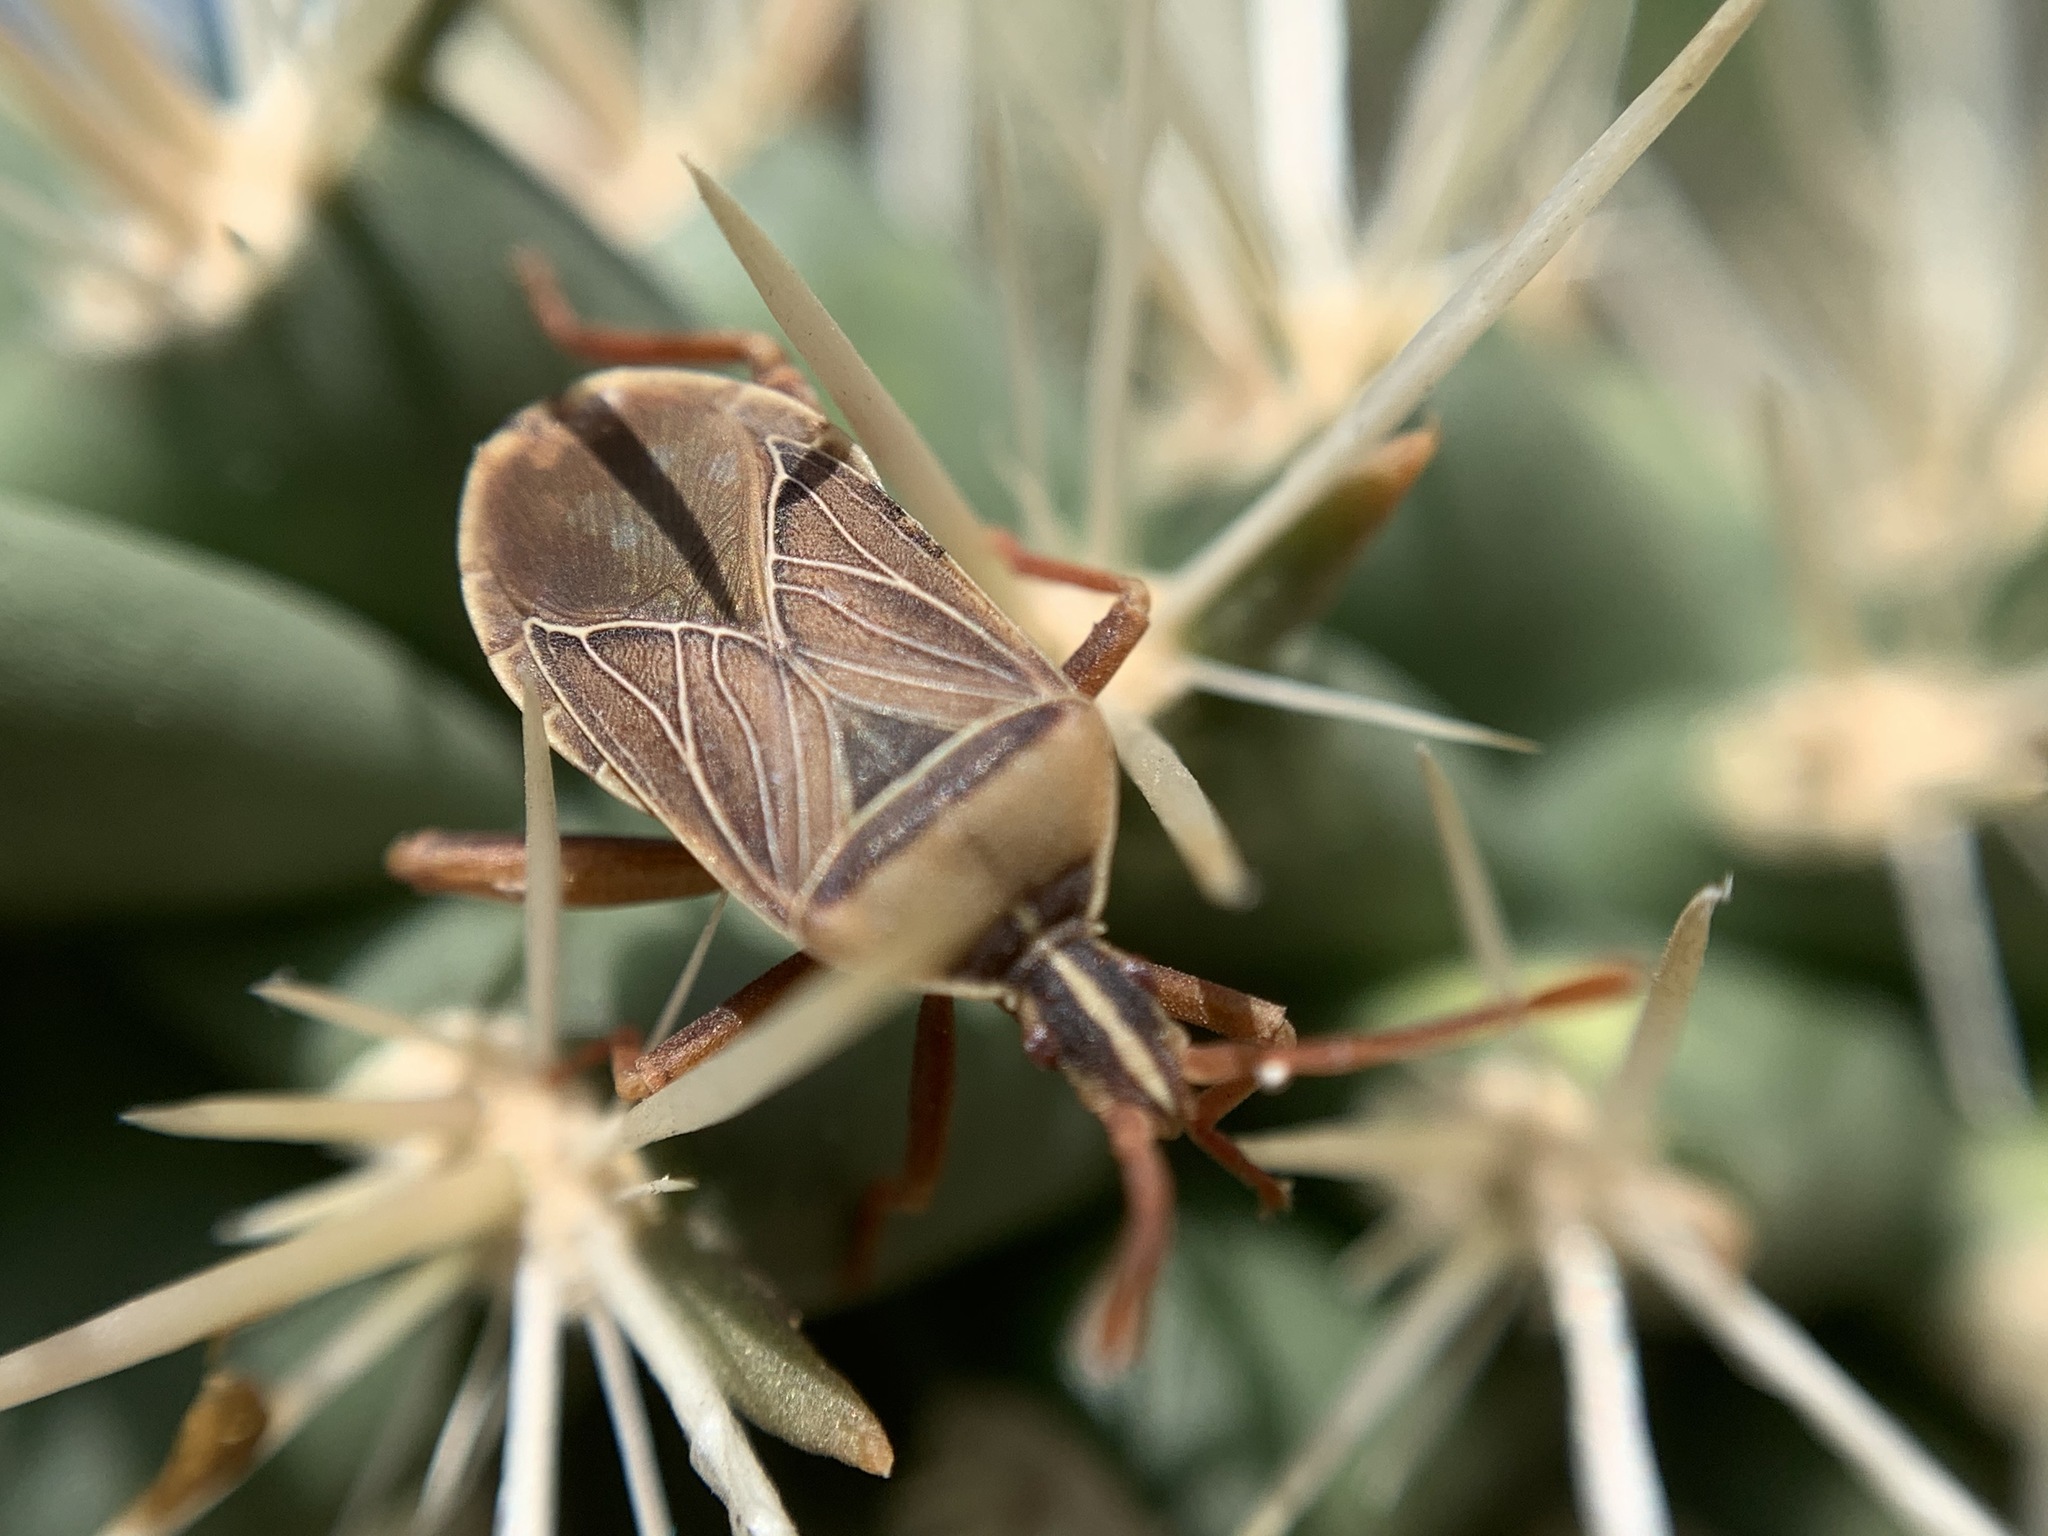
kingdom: Animalia
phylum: Arthropoda
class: Insecta
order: Hemiptera
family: Coreidae
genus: Chelinidea
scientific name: Chelinidea vittiger
